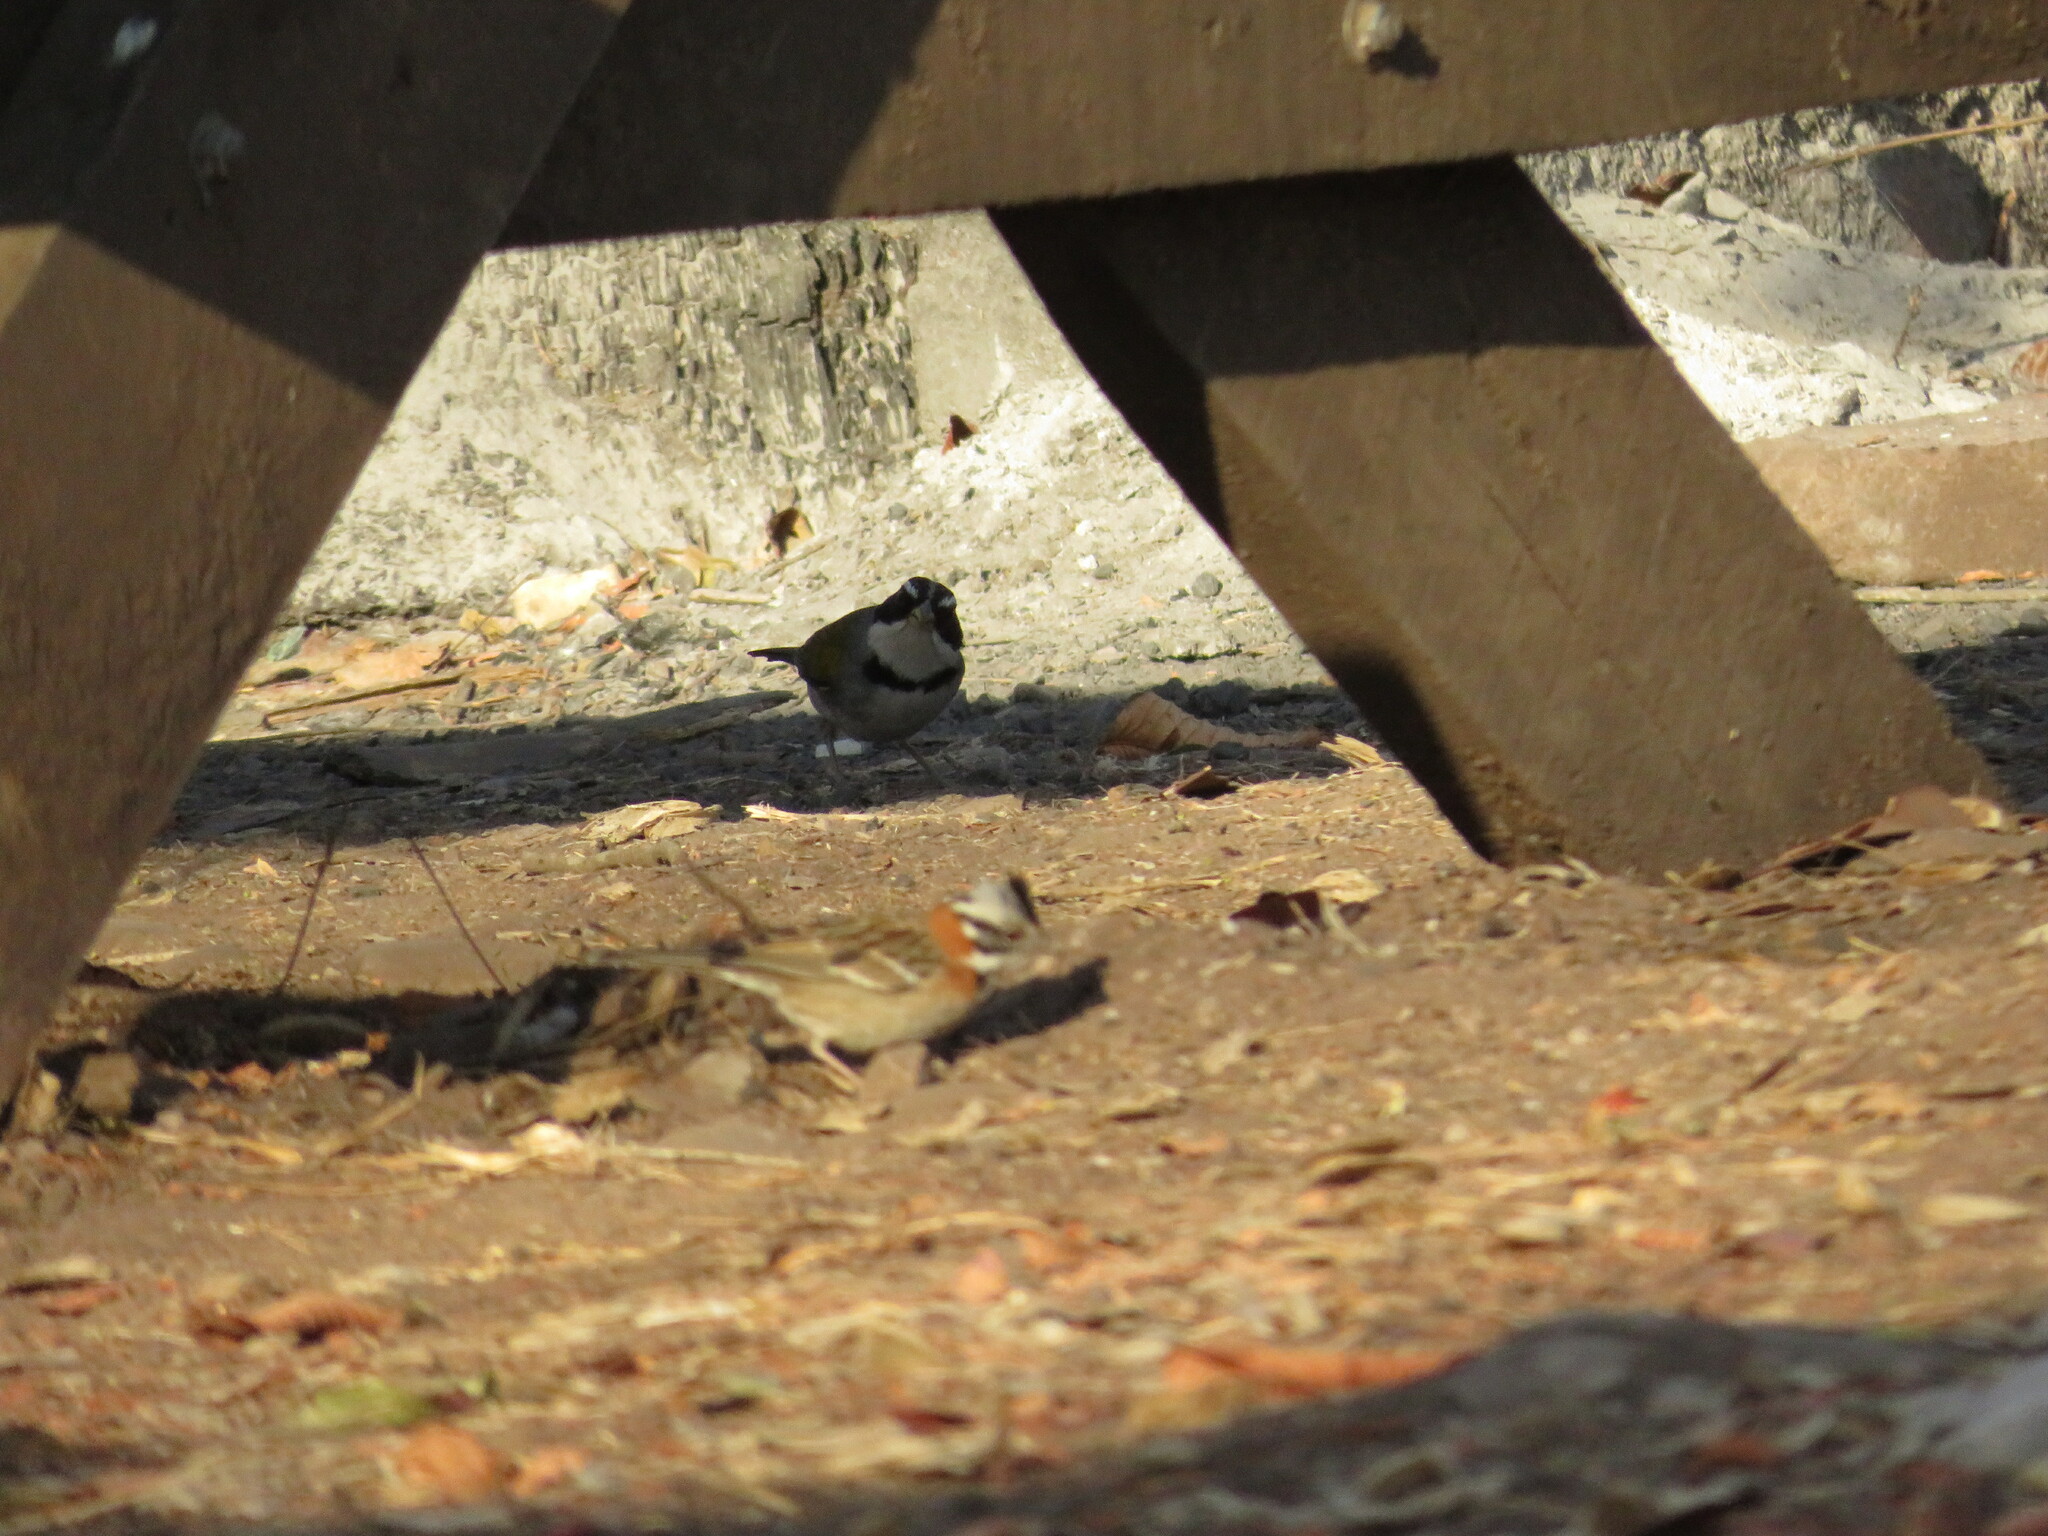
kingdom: Animalia
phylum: Chordata
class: Aves
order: Passeriformes
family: Passerellidae
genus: Arremon
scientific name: Arremon dorbignii
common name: Moss-backed sparrow
